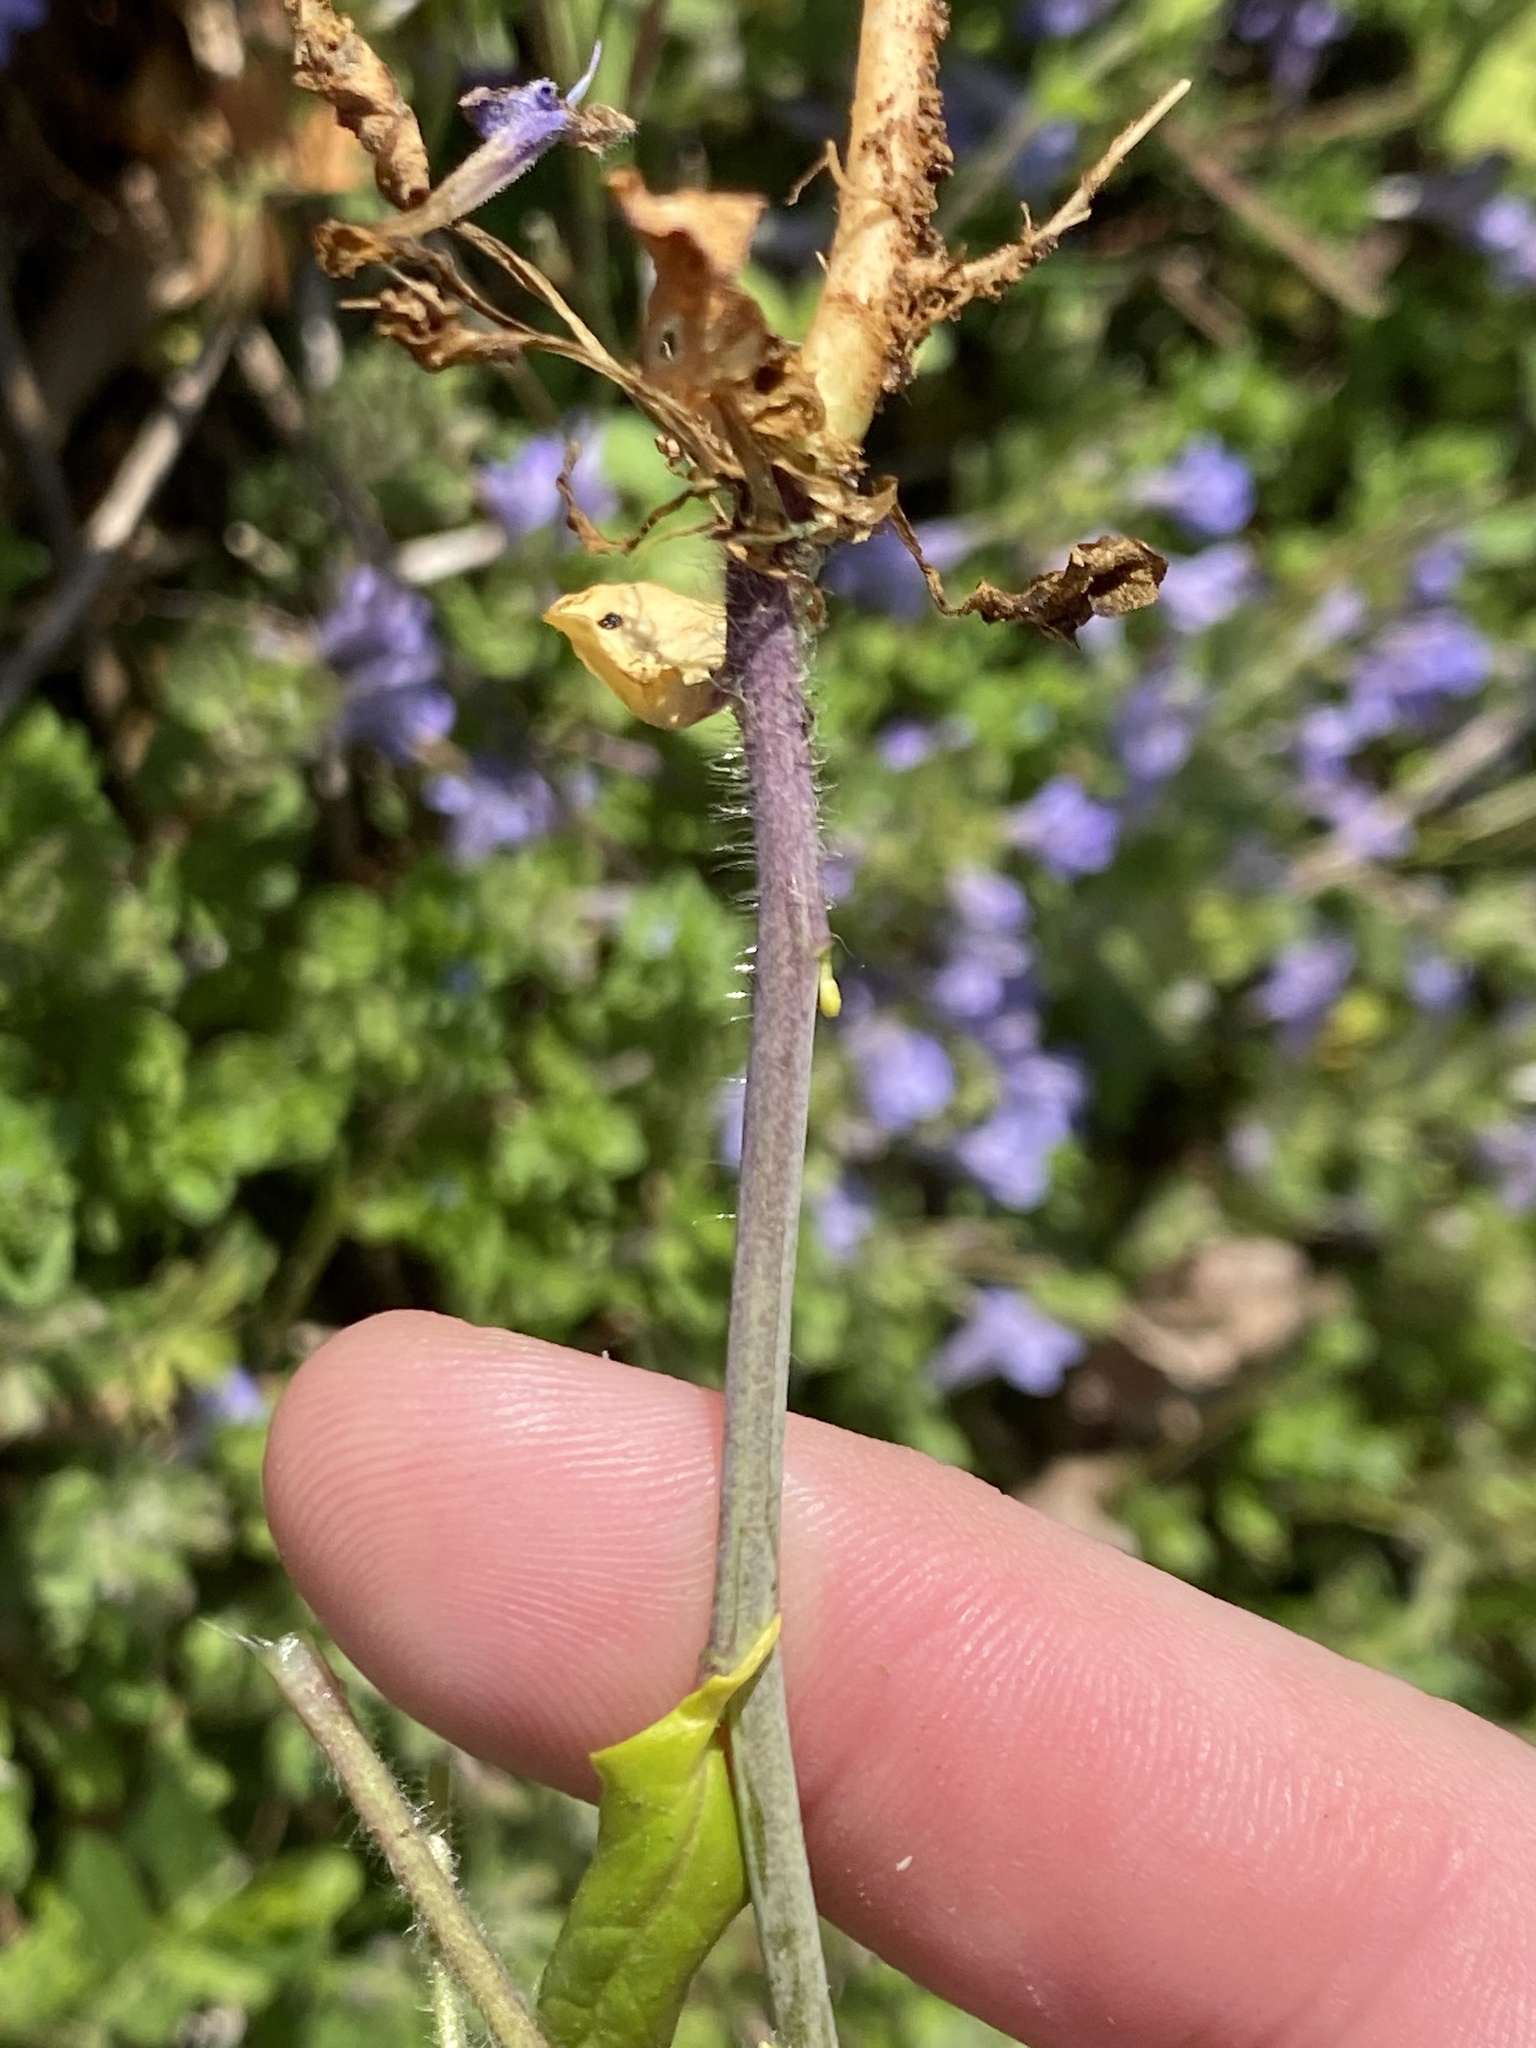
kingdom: Plantae
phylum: Tracheophyta
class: Magnoliopsida
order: Brassicales
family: Brassicaceae
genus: Mummenhoffia
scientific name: Mummenhoffia alliacea
